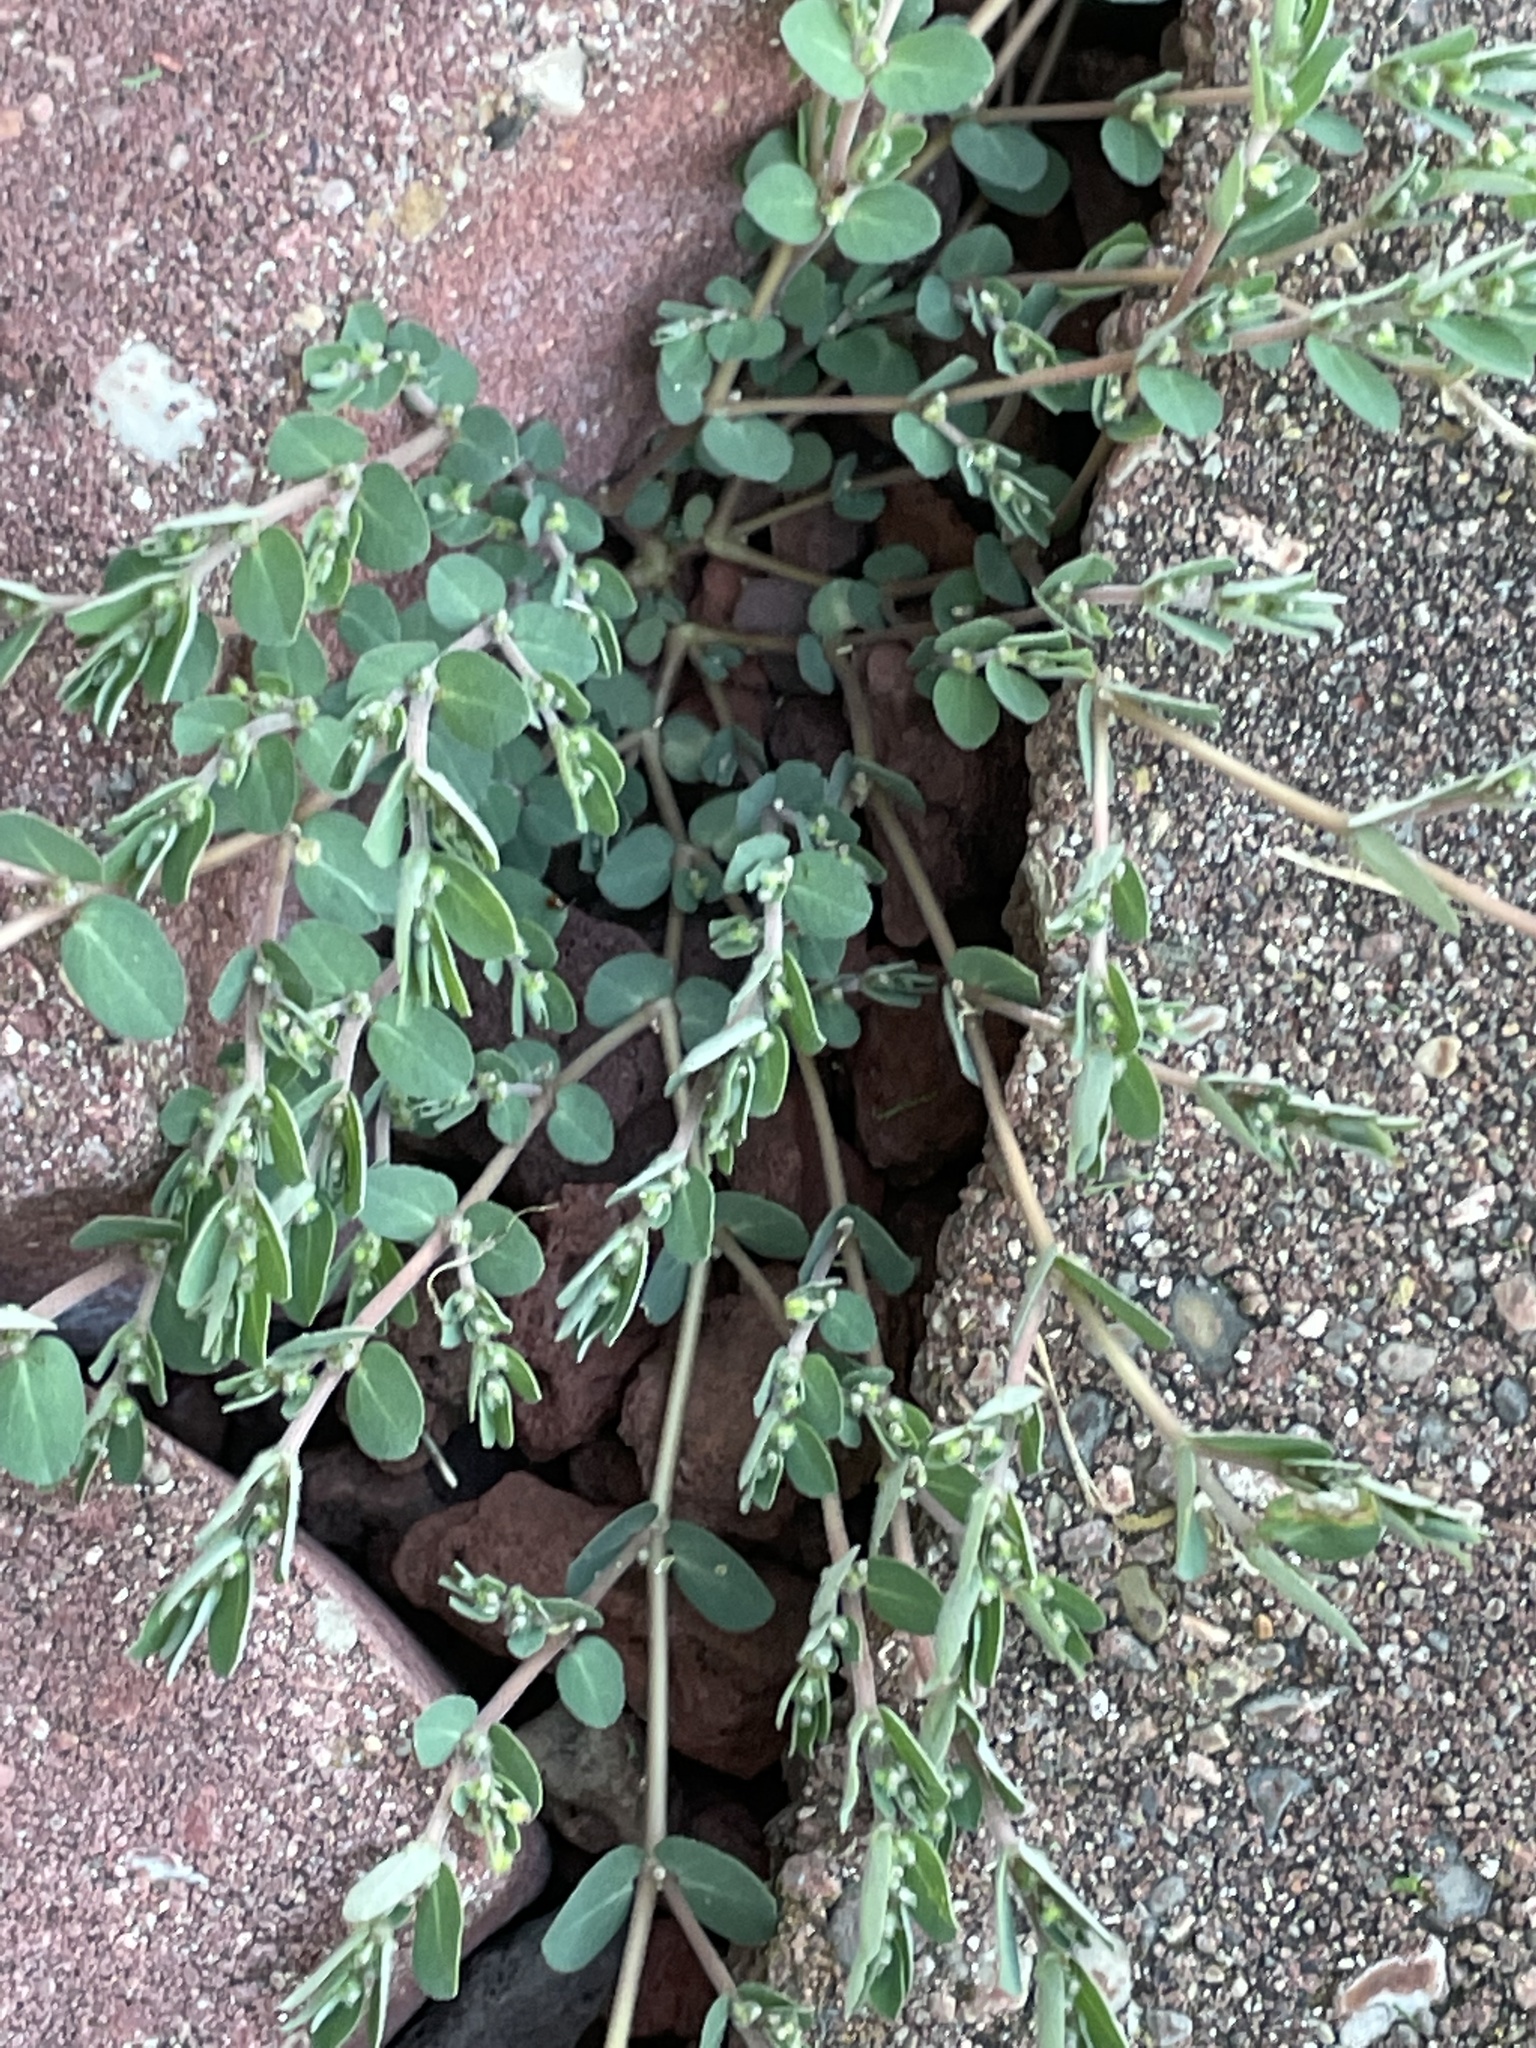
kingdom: Plantae
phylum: Tracheophyta
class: Magnoliopsida
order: Malpighiales
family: Euphorbiaceae
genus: Euphorbia
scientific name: Euphorbia prostrata
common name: Prostrate sandmat
